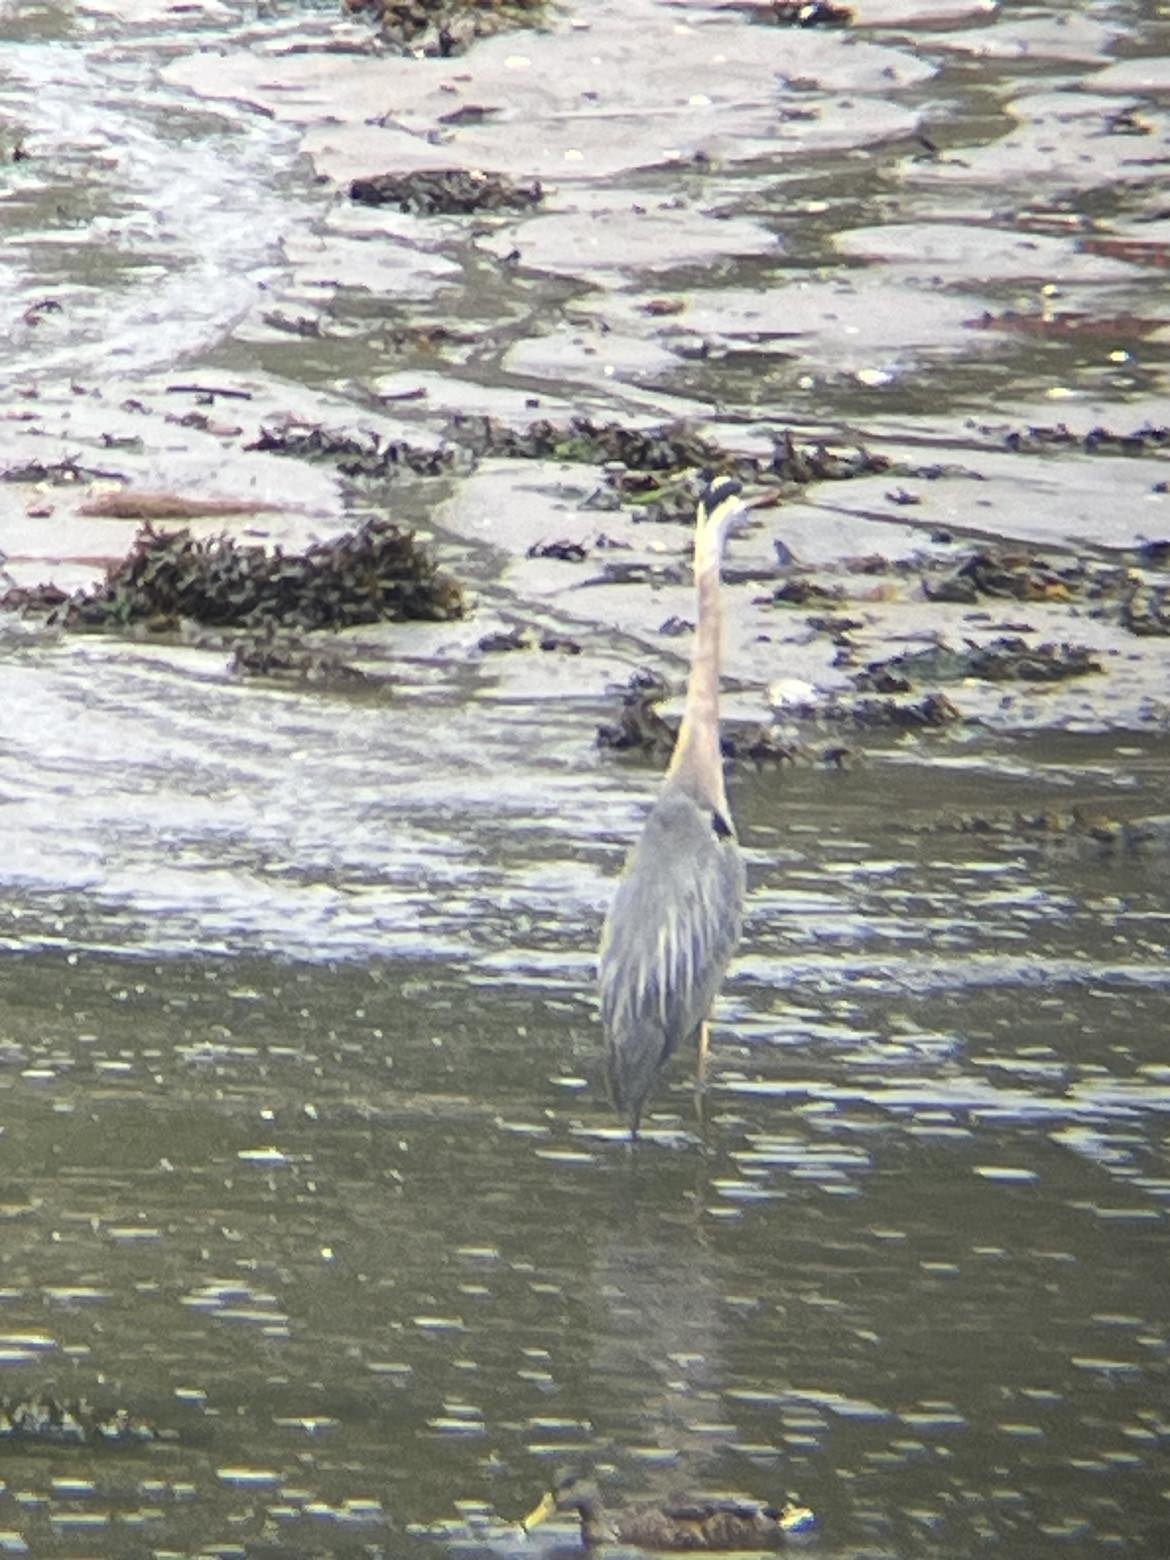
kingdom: Animalia
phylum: Chordata
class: Aves
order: Pelecaniformes
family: Ardeidae
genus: Ardea
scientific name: Ardea herodias
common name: Great blue heron
